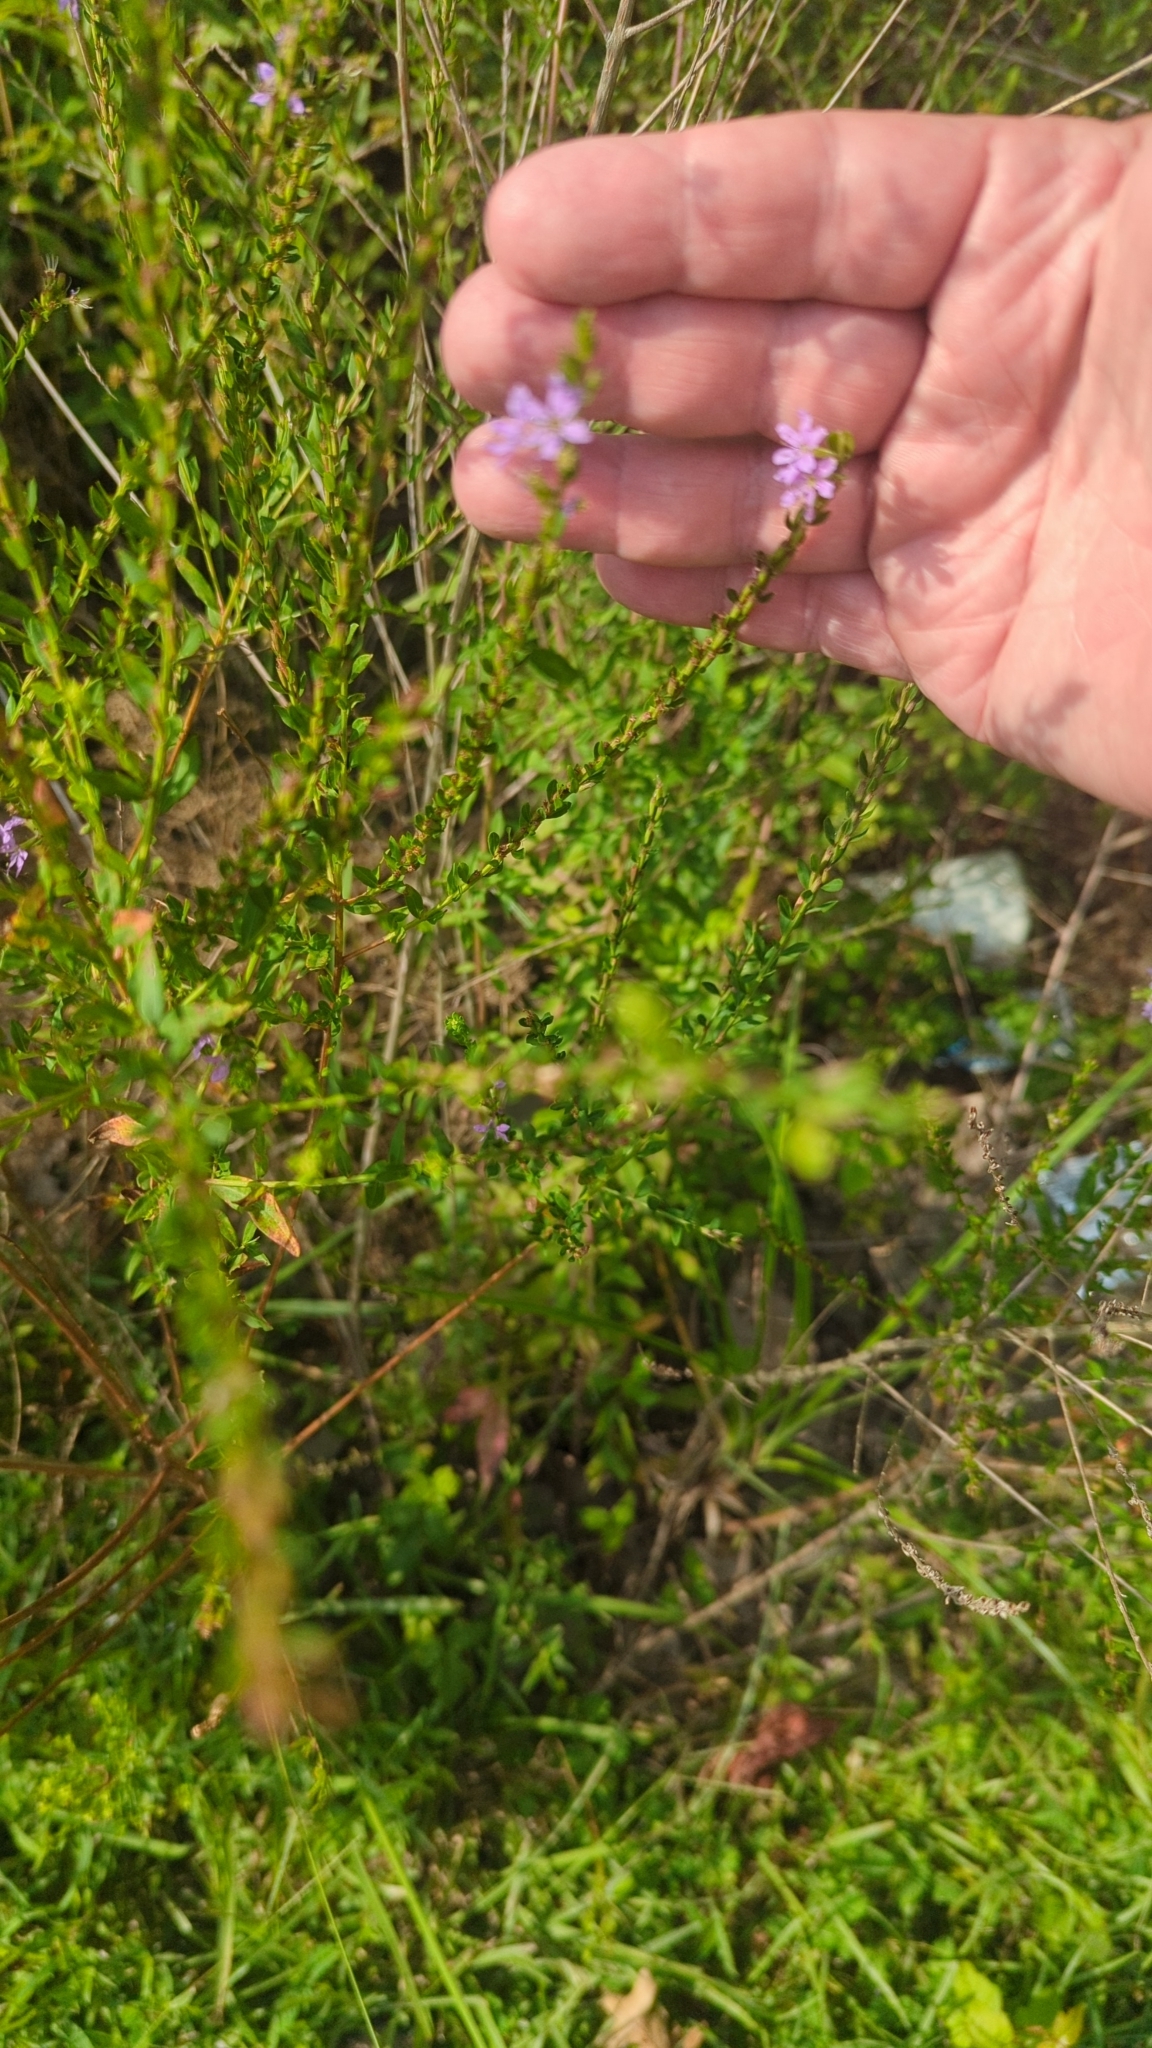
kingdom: Plantae
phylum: Tracheophyta
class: Magnoliopsida
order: Myrtales
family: Lythraceae
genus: Lythrum
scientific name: Lythrum alatum
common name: Winged loosestrife
